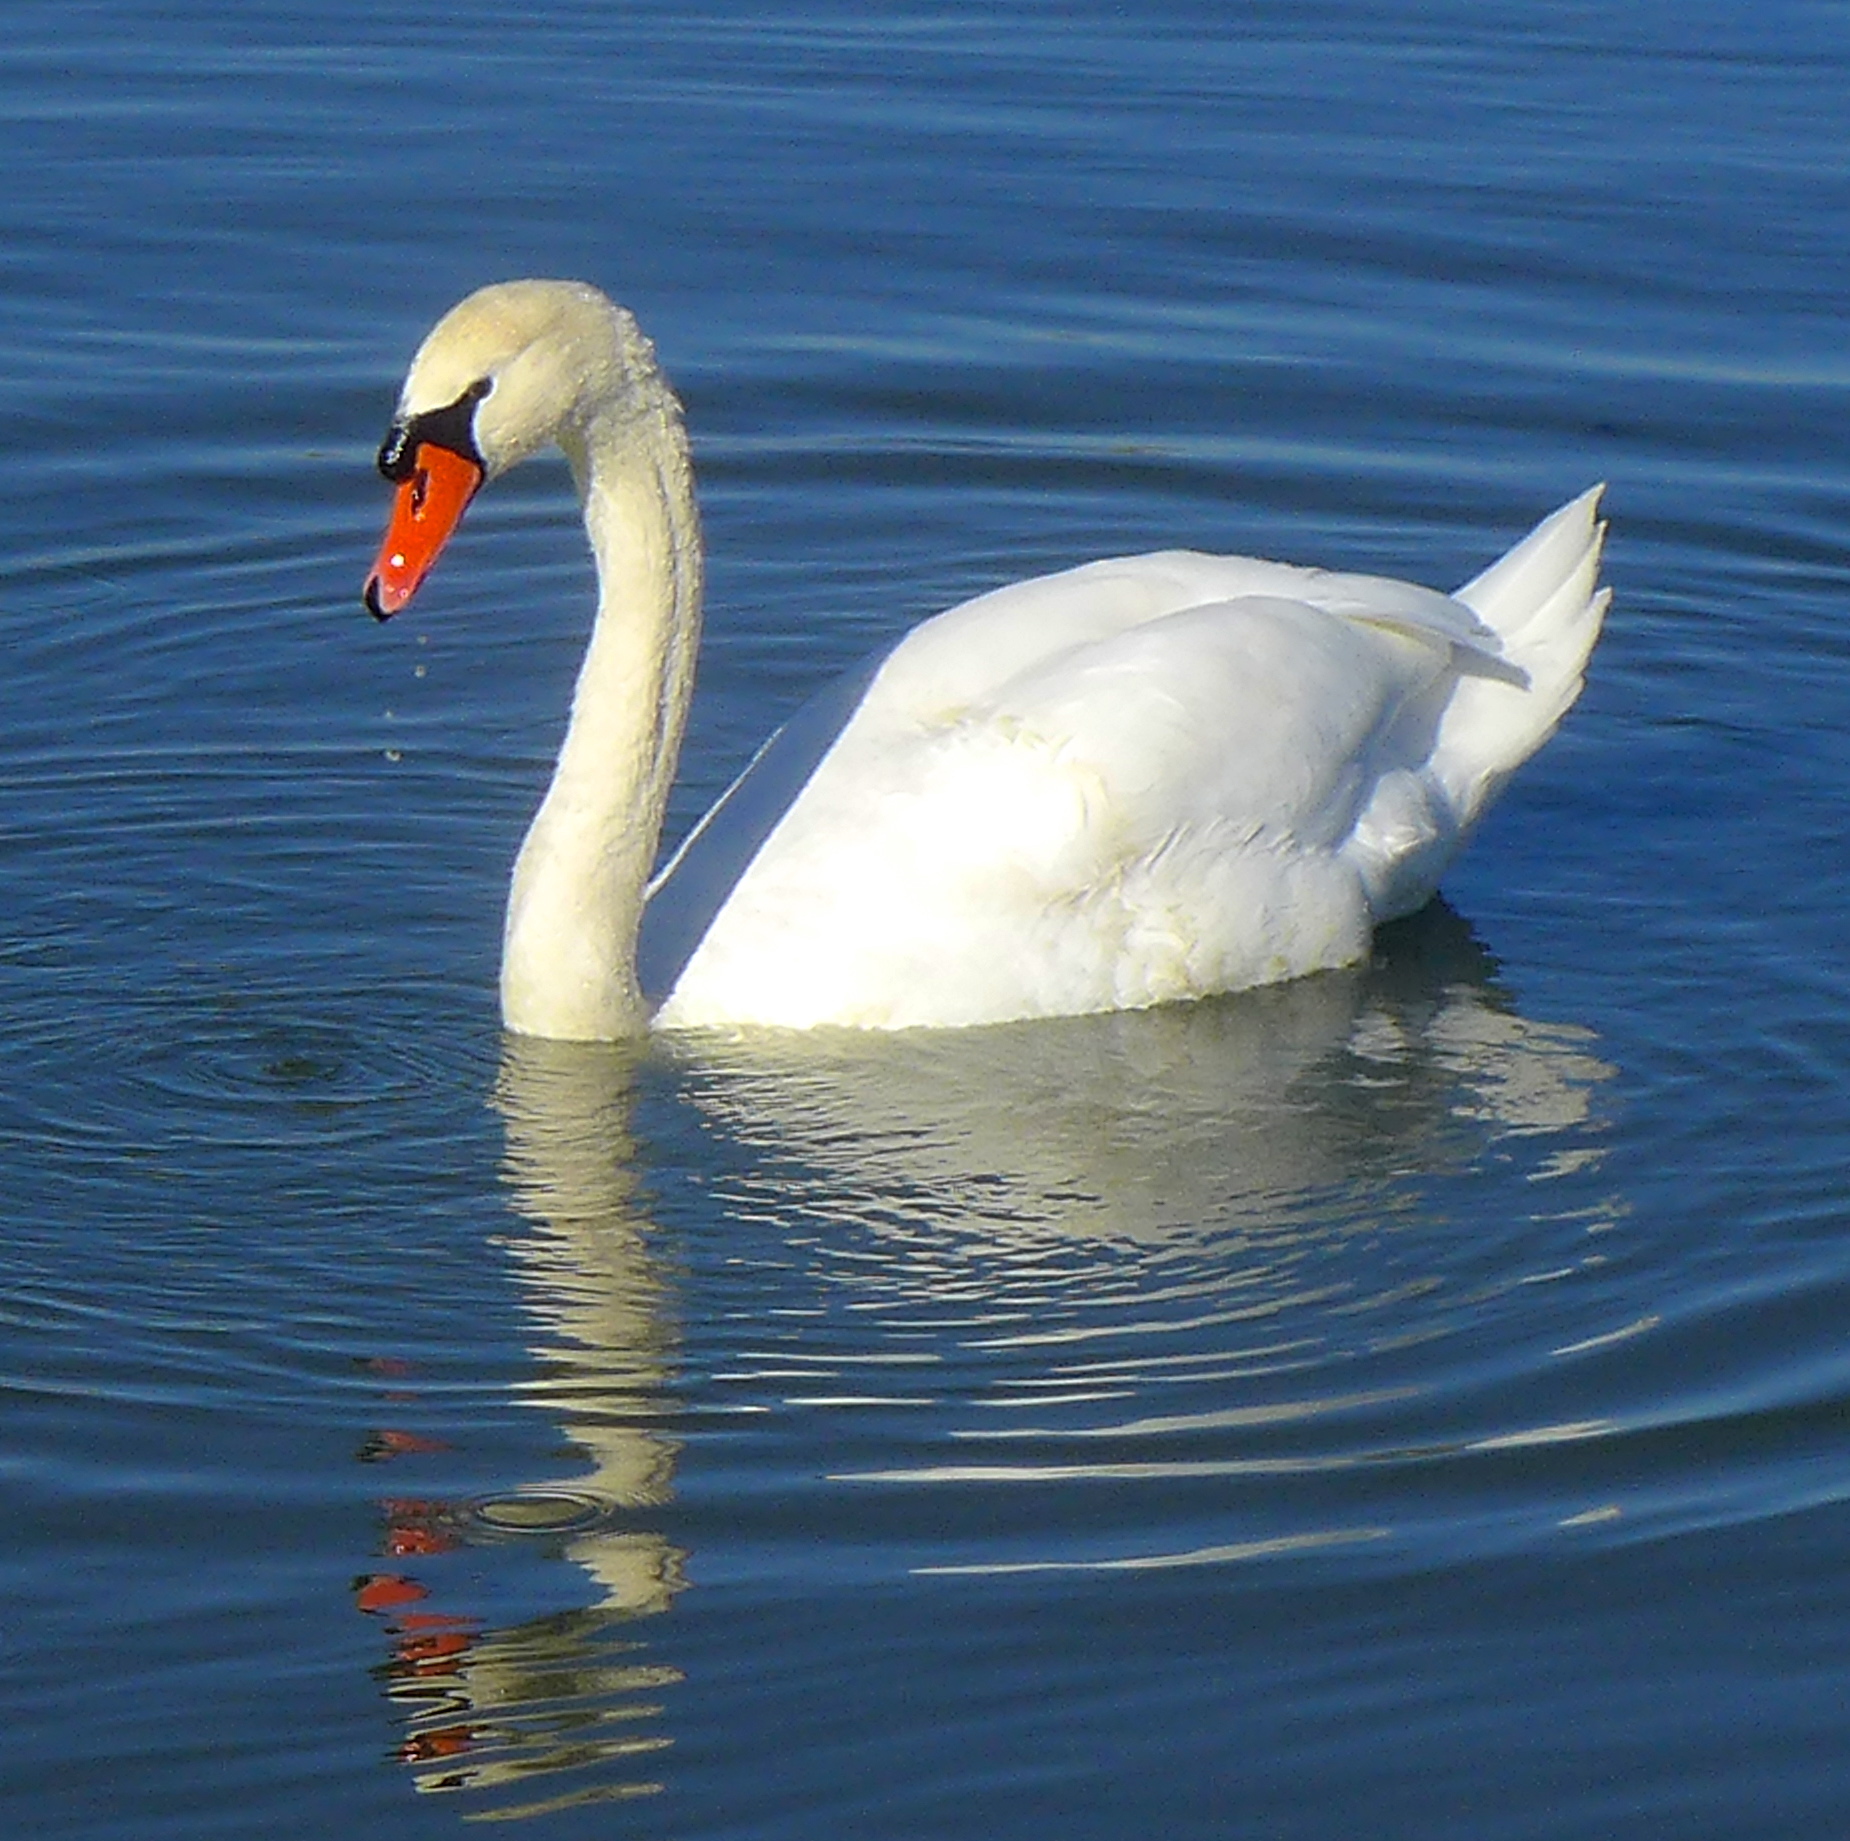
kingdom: Animalia
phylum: Chordata
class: Aves
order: Anseriformes
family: Anatidae
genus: Cygnus
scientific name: Cygnus olor
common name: Mute swan
